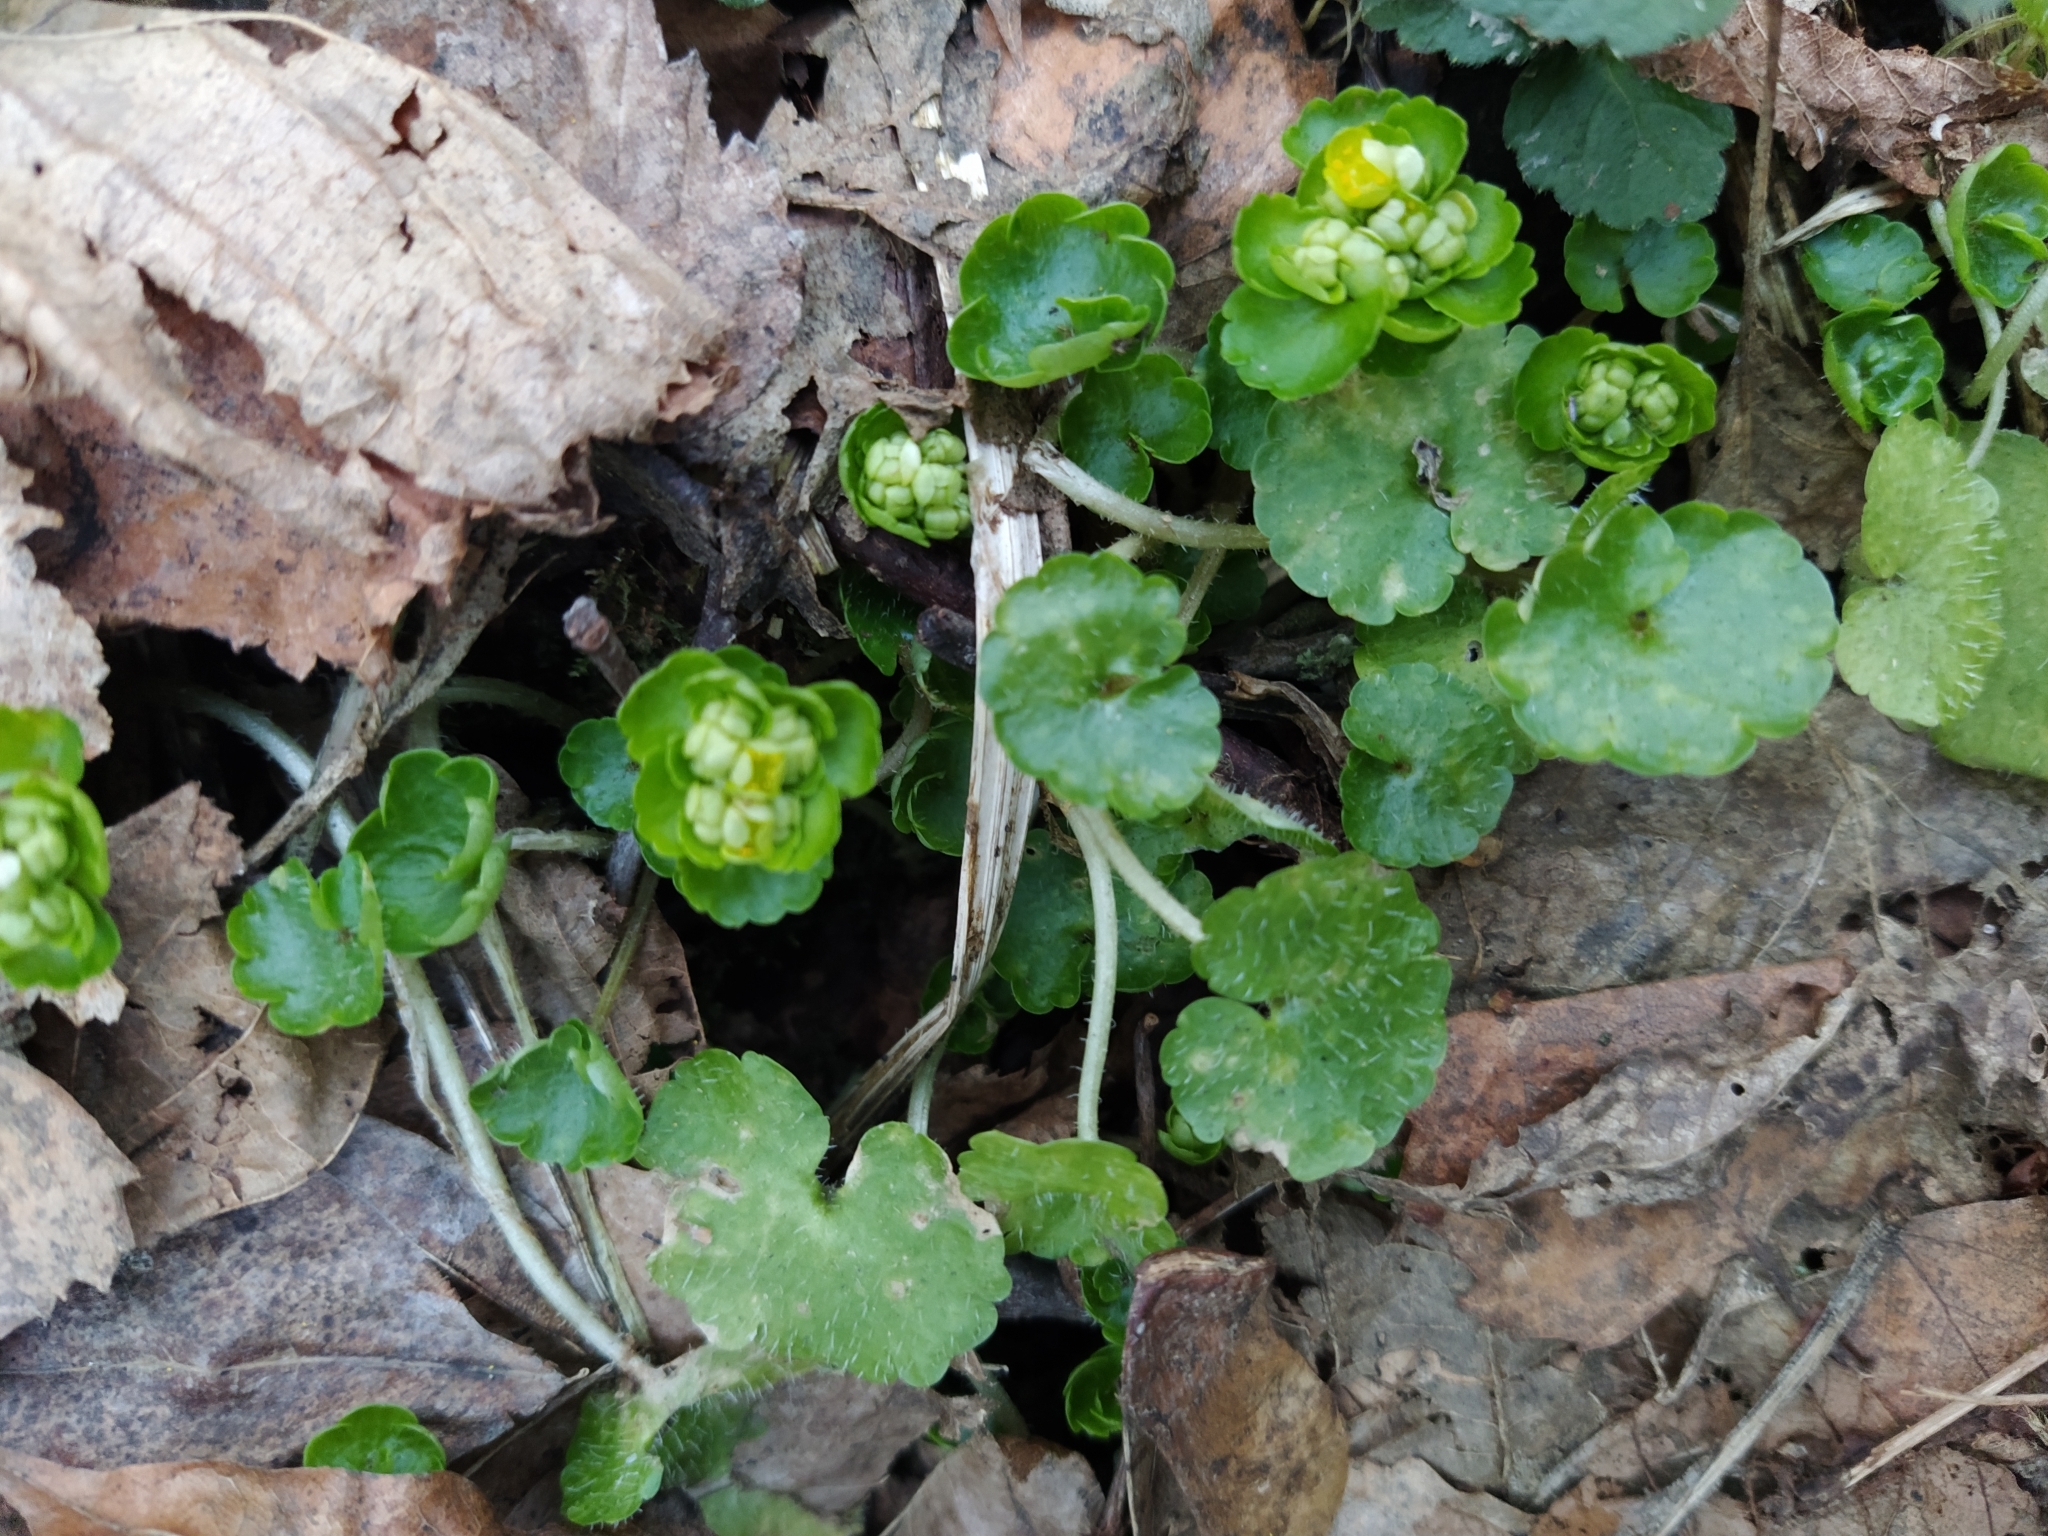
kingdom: Plantae
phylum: Tracheophyta
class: Magnoliopsida
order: Saxifragales
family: Saxifragaceae
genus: Chrysosplenium
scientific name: Chrysosplenium alternifolium
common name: Alternate-leaved golden-saxifrage
